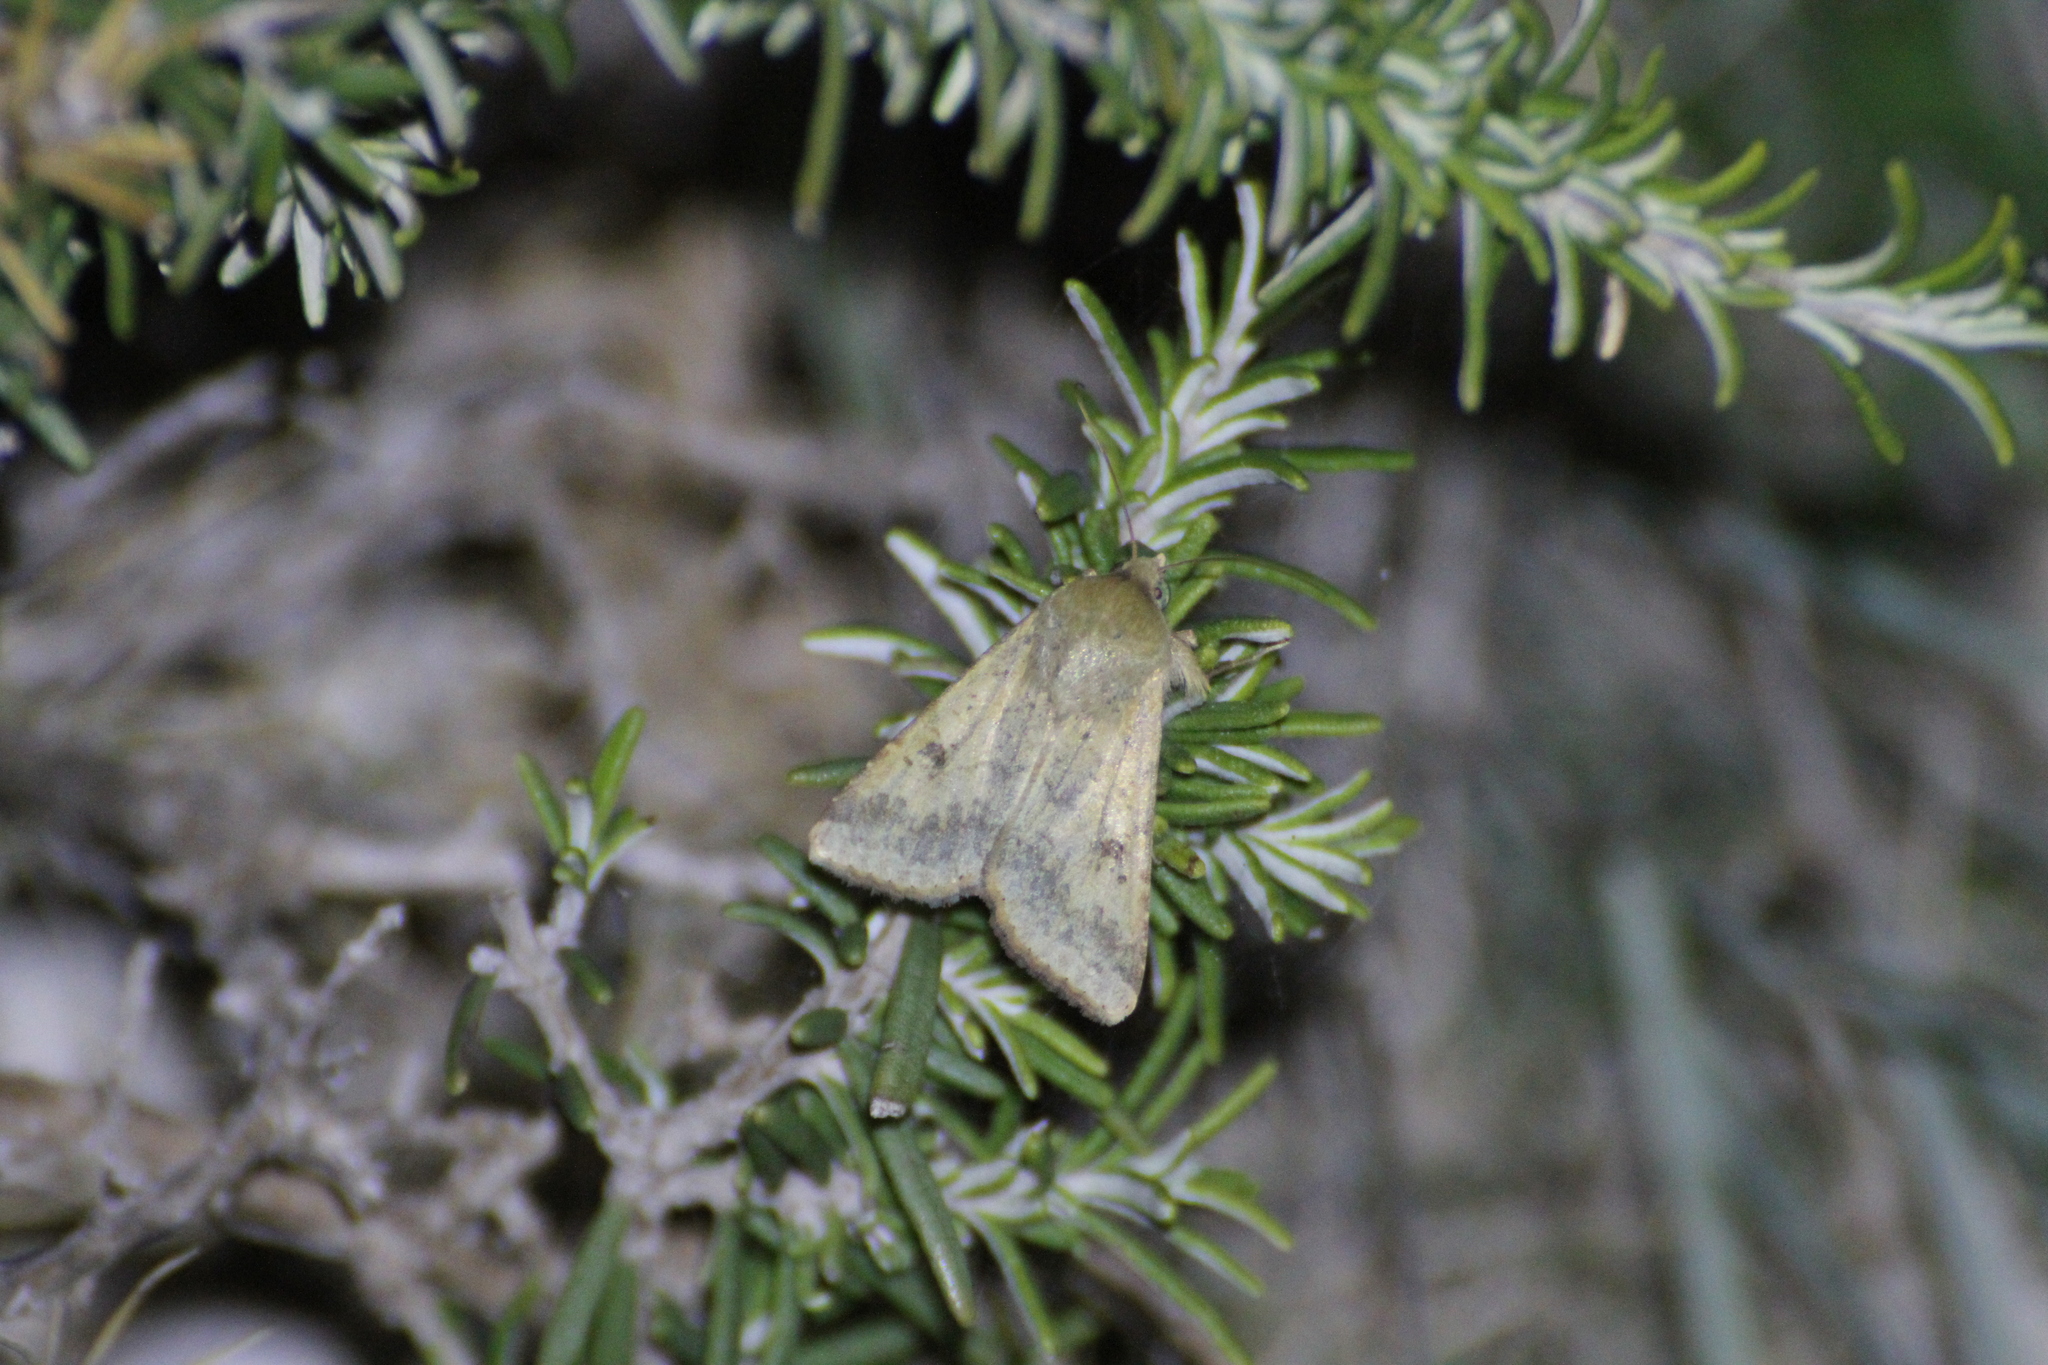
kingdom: Animalia
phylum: Arthropoda
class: Insecta
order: Lepidoptera
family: Noctuidae
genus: Helicoverpa
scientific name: Helicoverpa armigera
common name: Cotton bollworm
